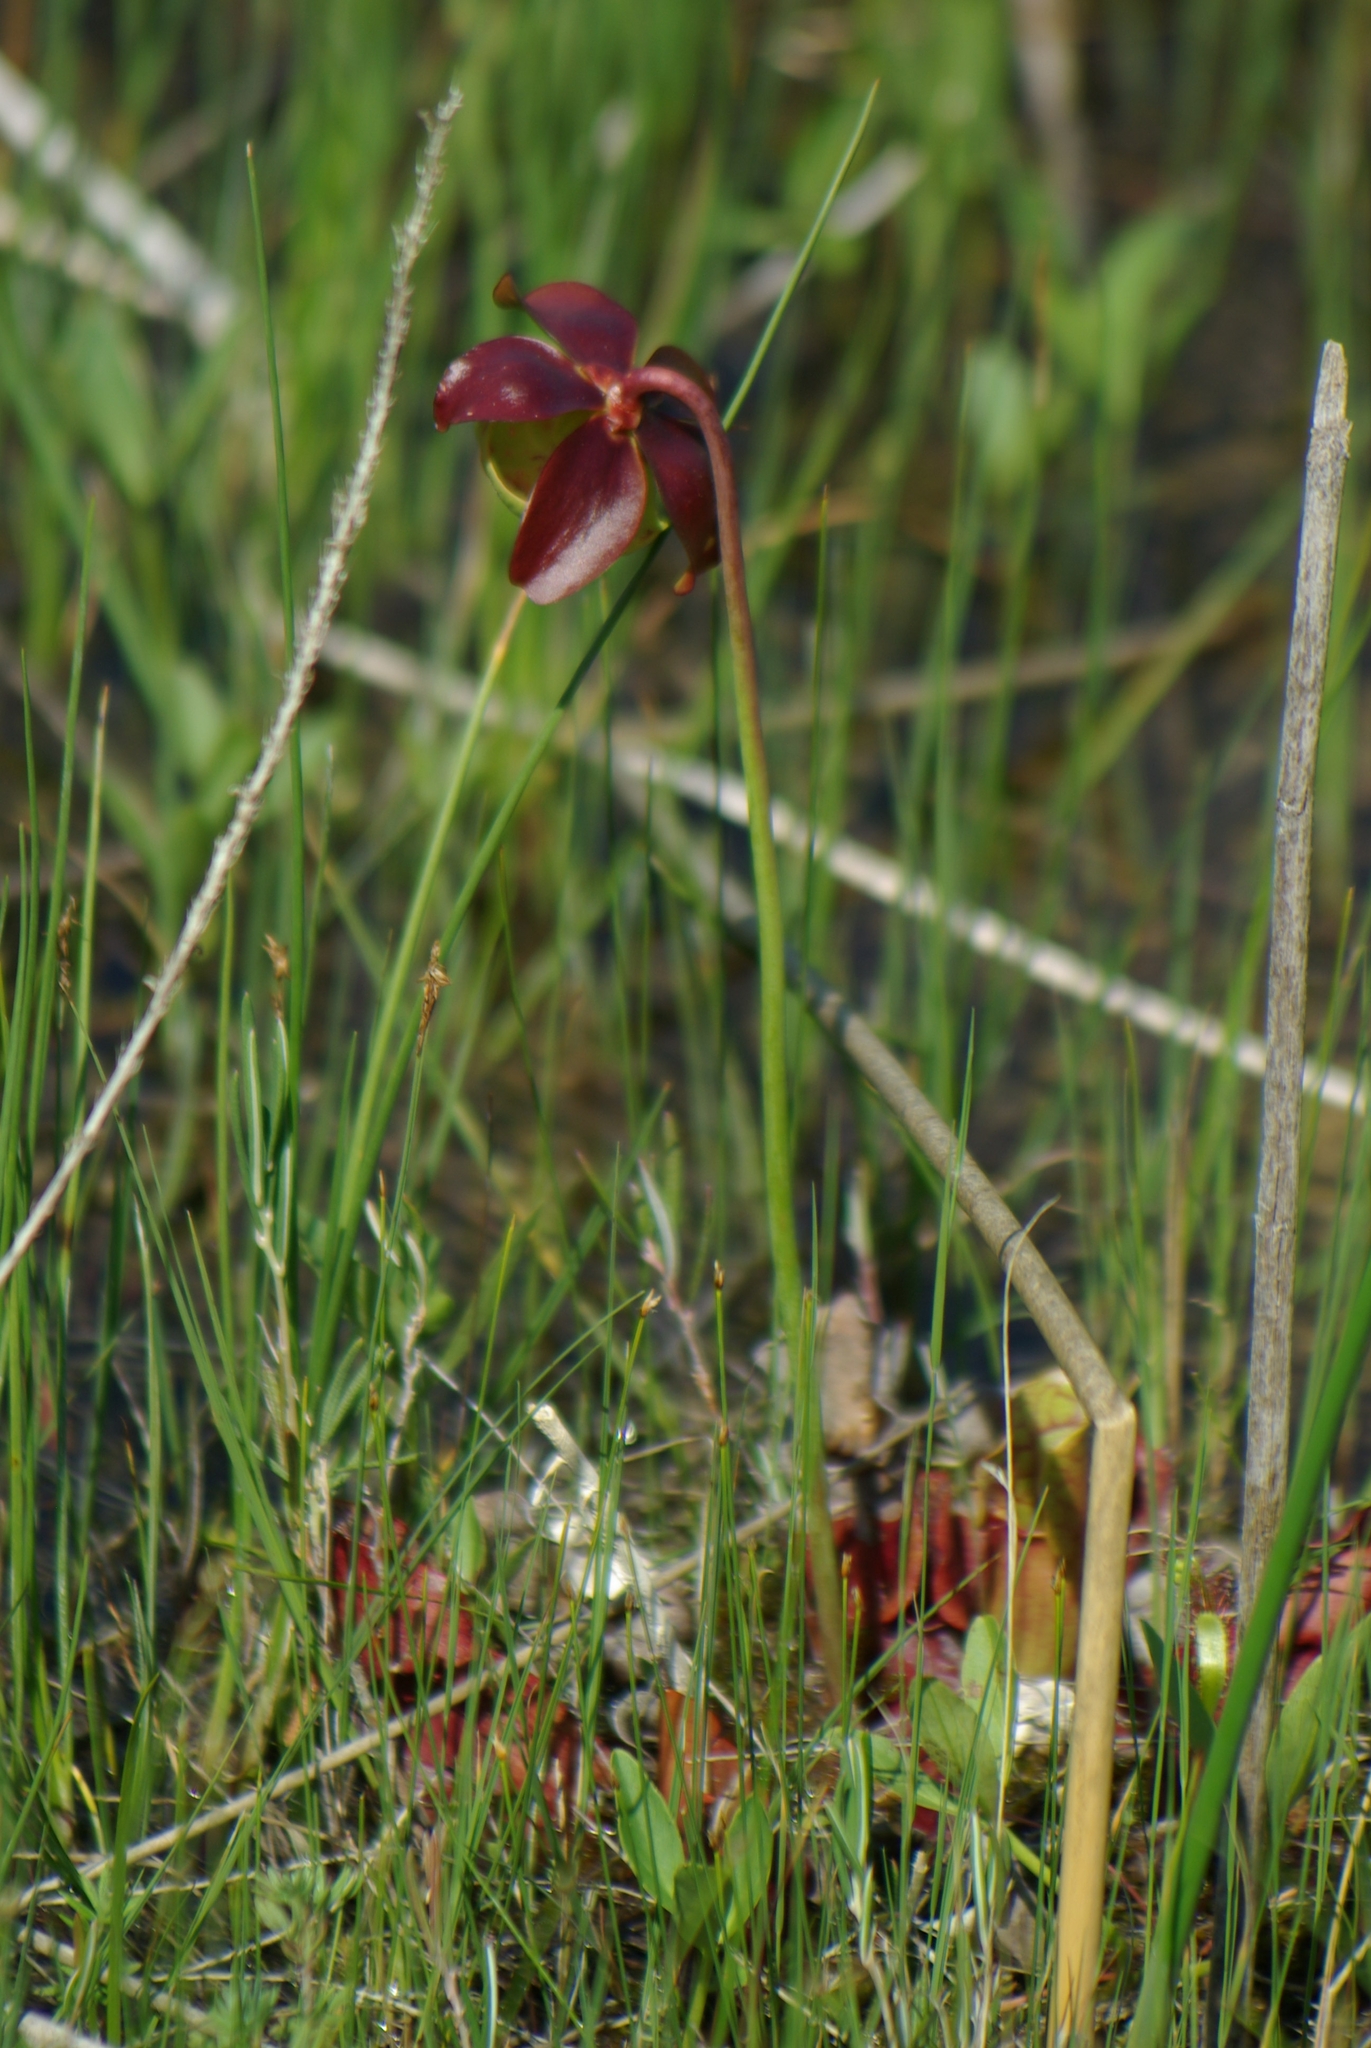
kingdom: Plantae
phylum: Tracheophyta
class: Magnoliopsida
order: Ericales
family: Sarraceniaceae
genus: Sarracenia
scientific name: Sarracenia purpurea
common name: Pitcherplant
